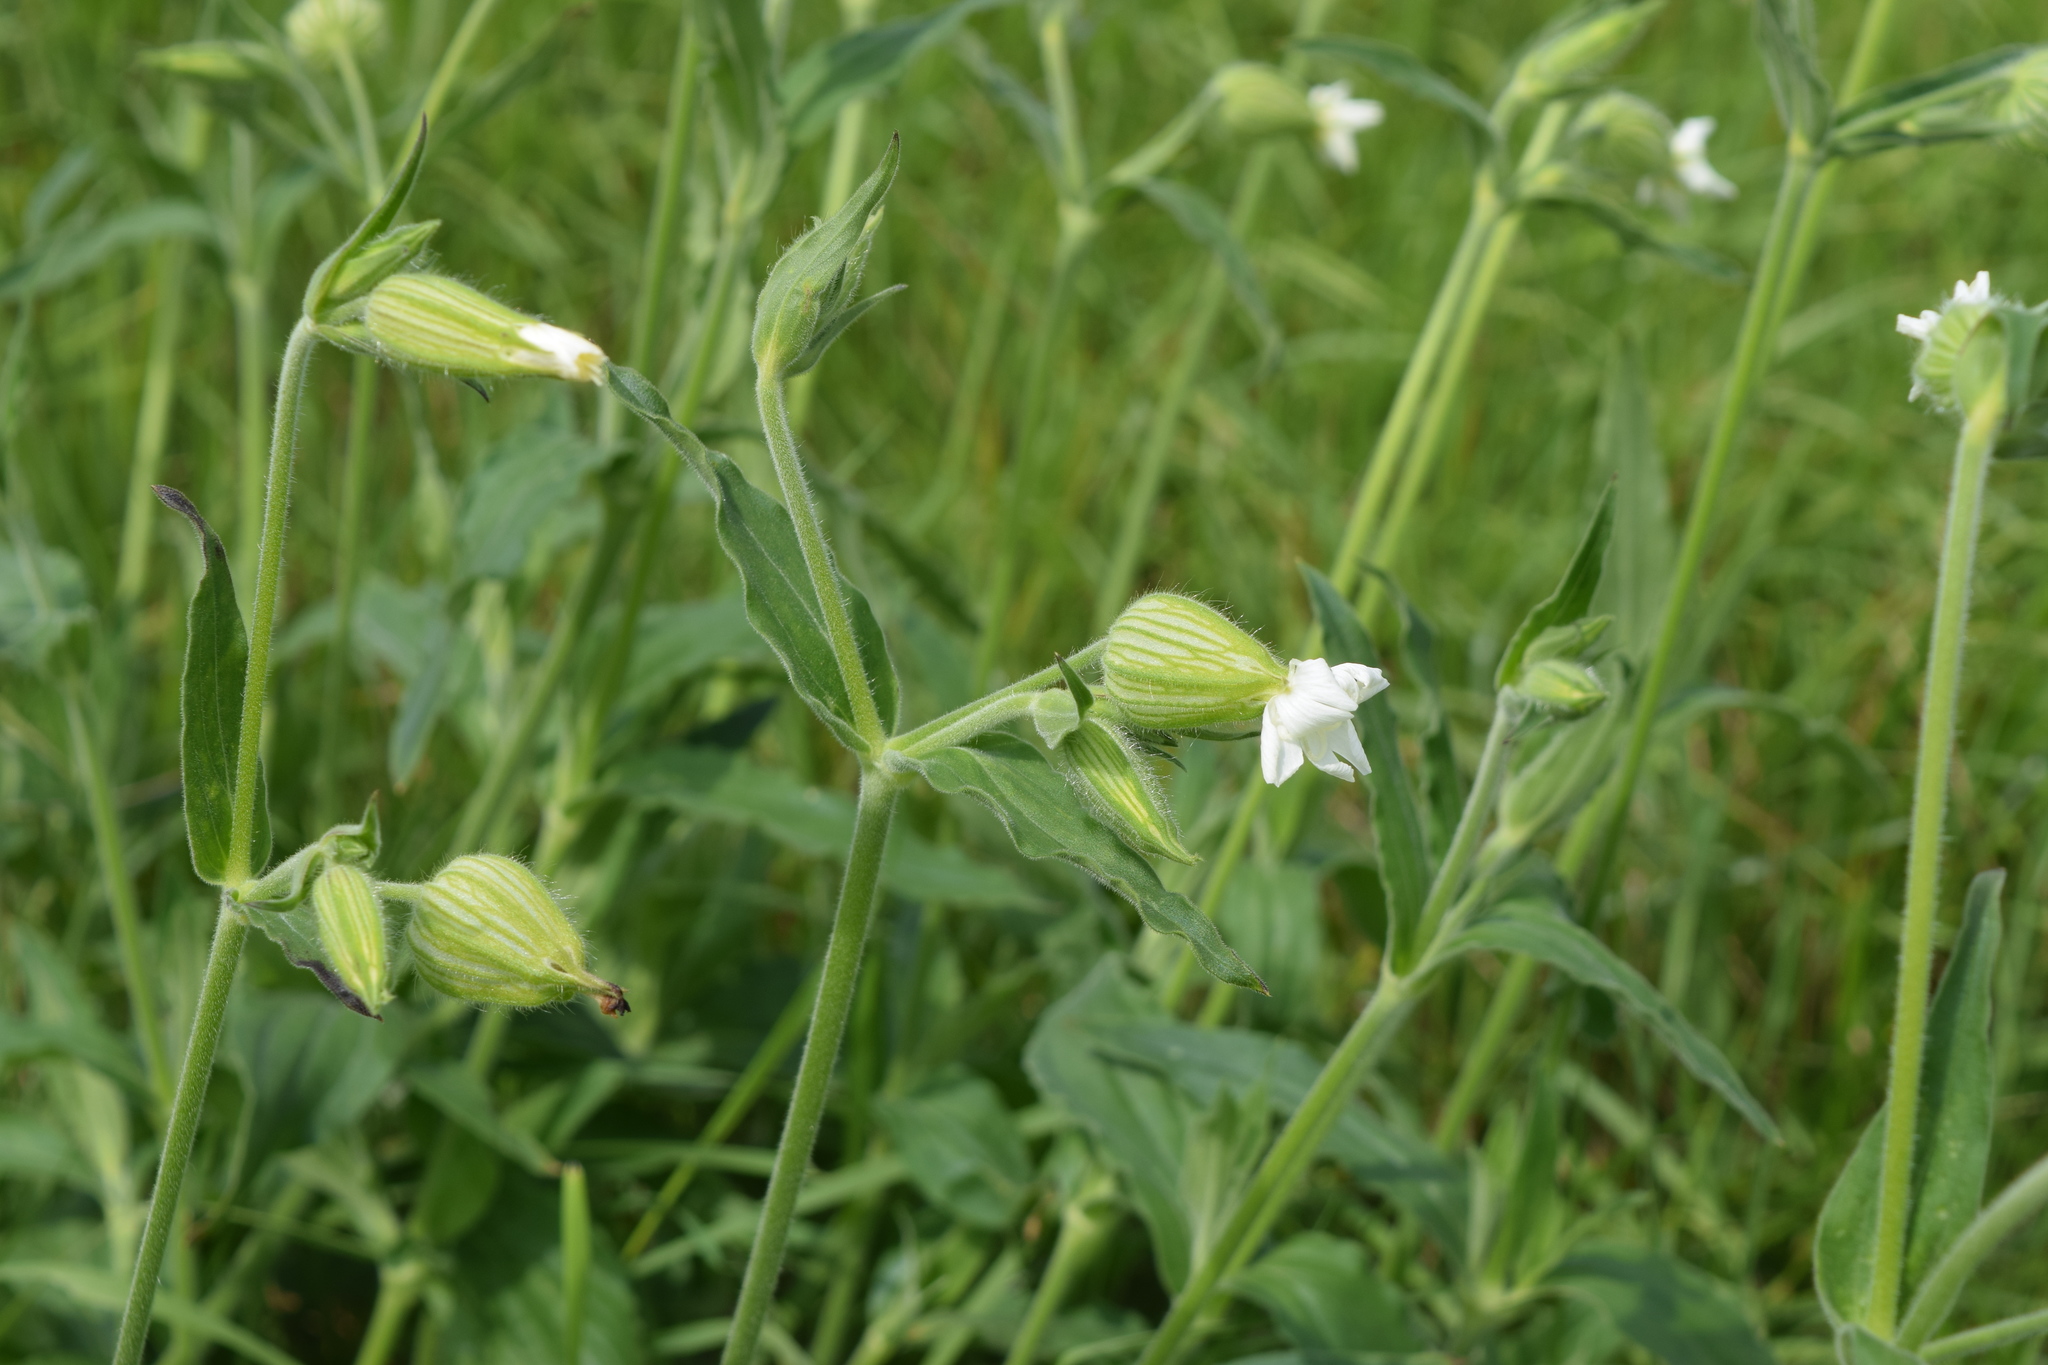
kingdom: Plantae
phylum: Tracheophyta
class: Magnoliopsida
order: Caryophyllales
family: Caryophyllaceae
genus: Silene
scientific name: Silene latifolia
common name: White campion
